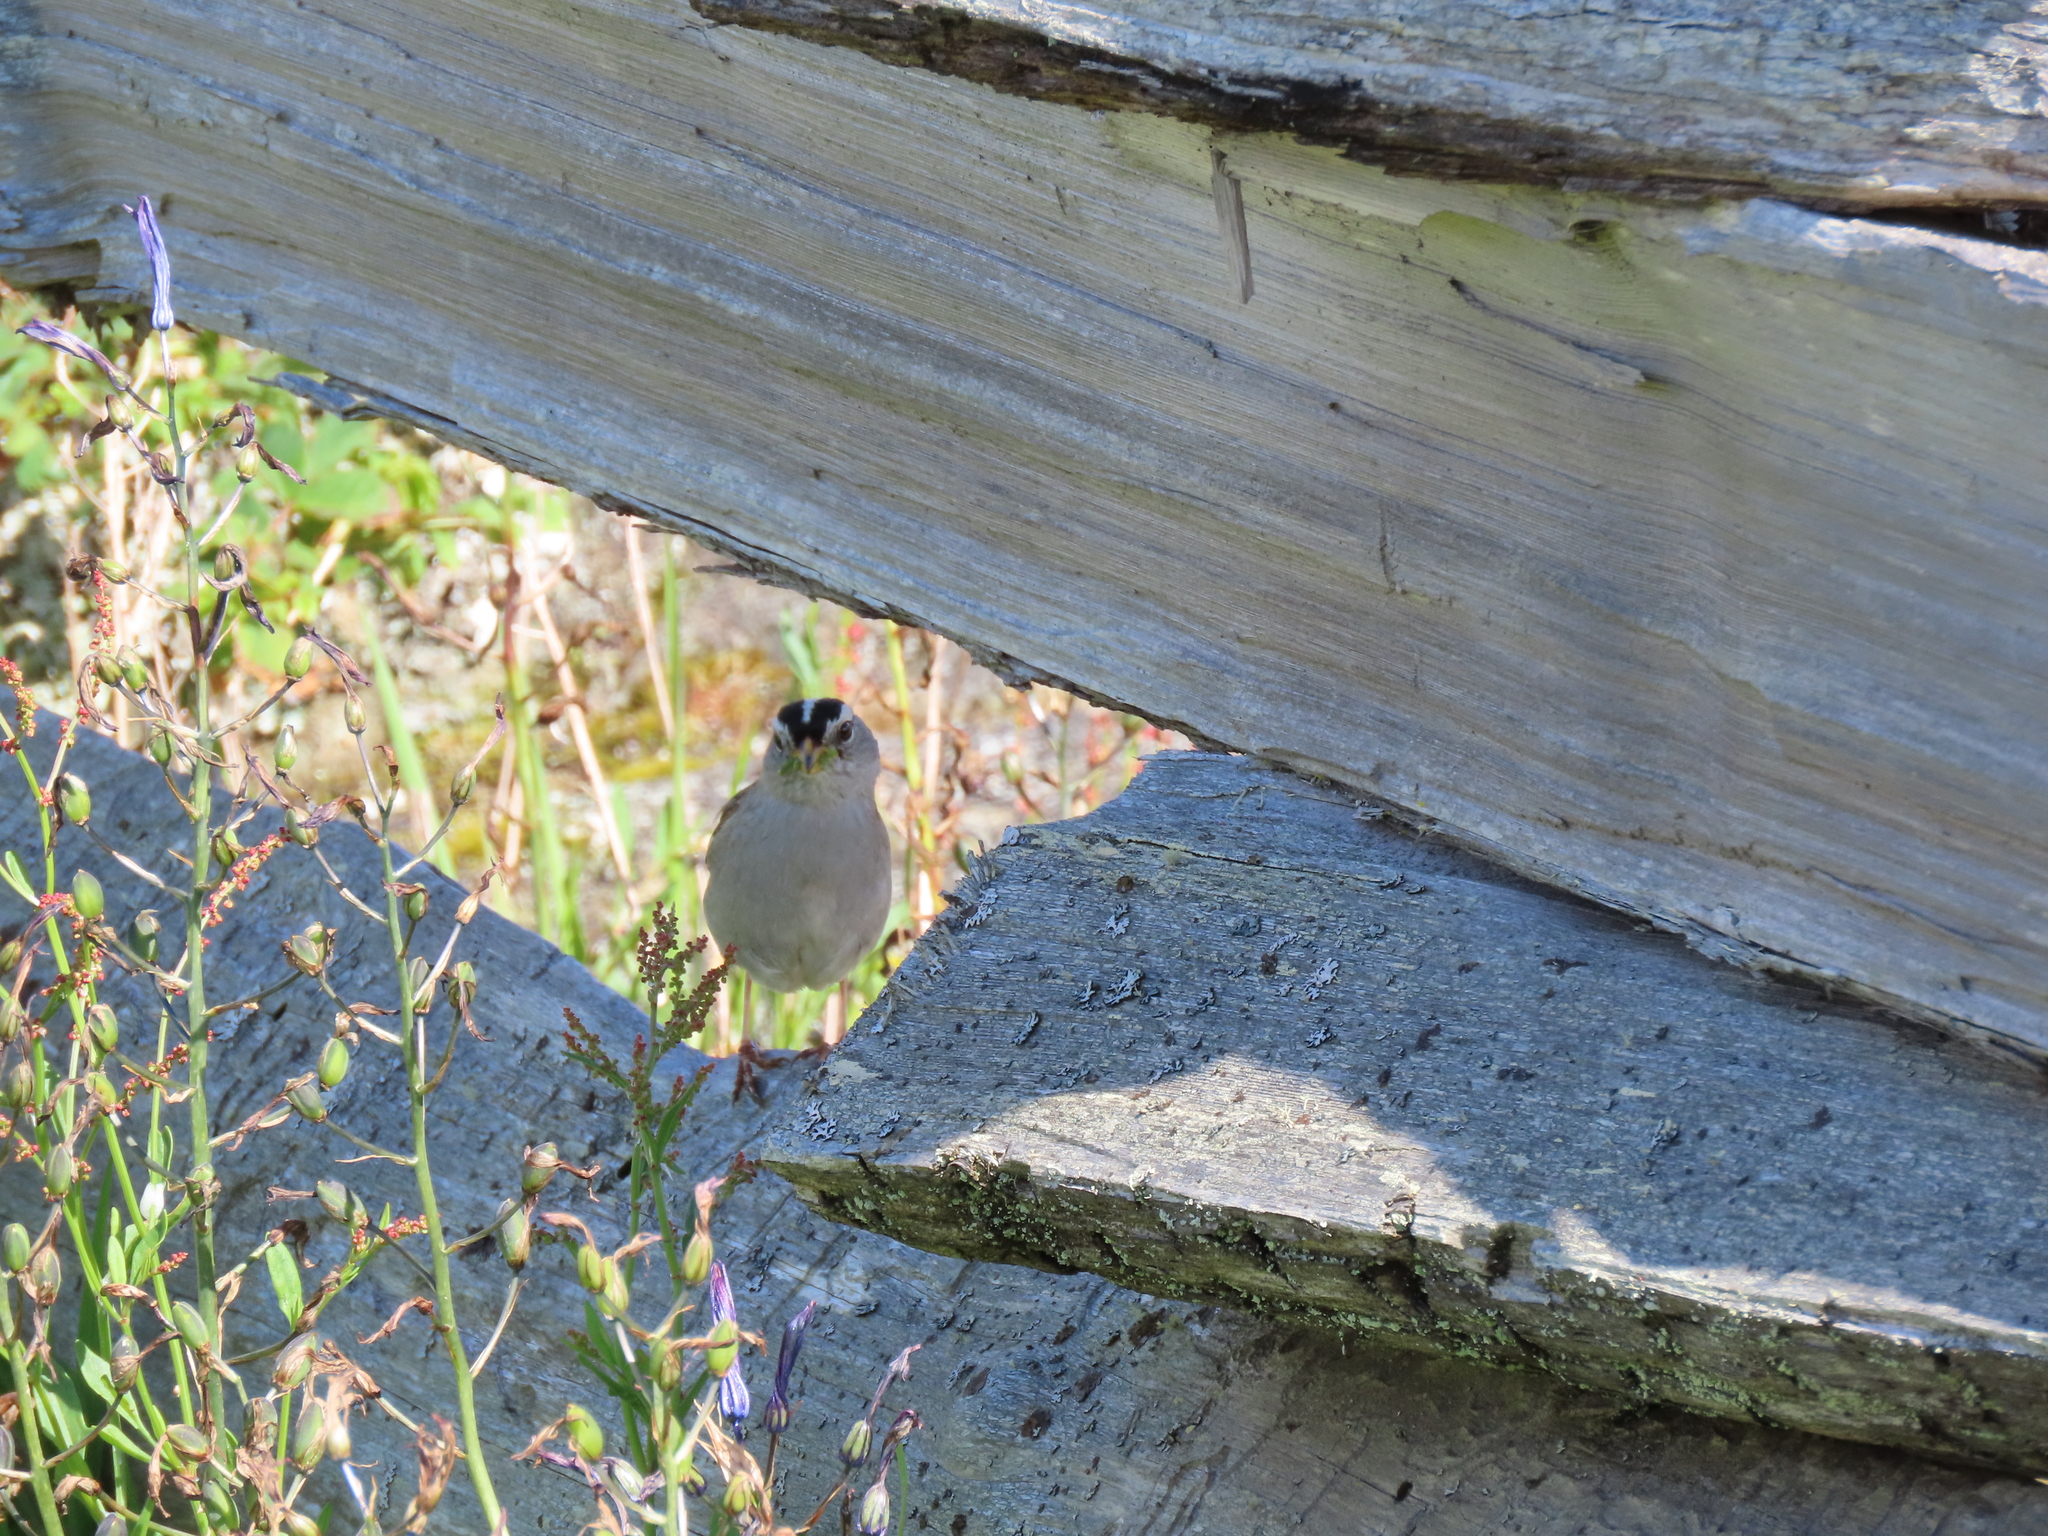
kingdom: Animalia
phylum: Chordata
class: Aves
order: Passeriformes
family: Passerellidae
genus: Zonotrichia
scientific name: Zonotrichia leucophrys
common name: White-crowned sparrow
